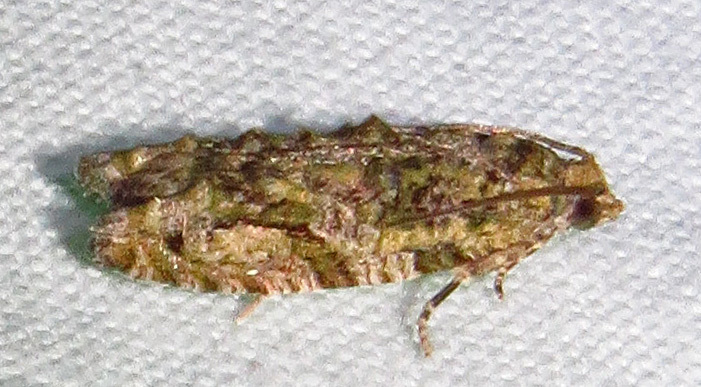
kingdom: Animalia
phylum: Arthropoda
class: Insecta
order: Lepidoptera
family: Tortricidae
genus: Proteoteras
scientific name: Proteoteras aesculana
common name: Maple twig borer moth
